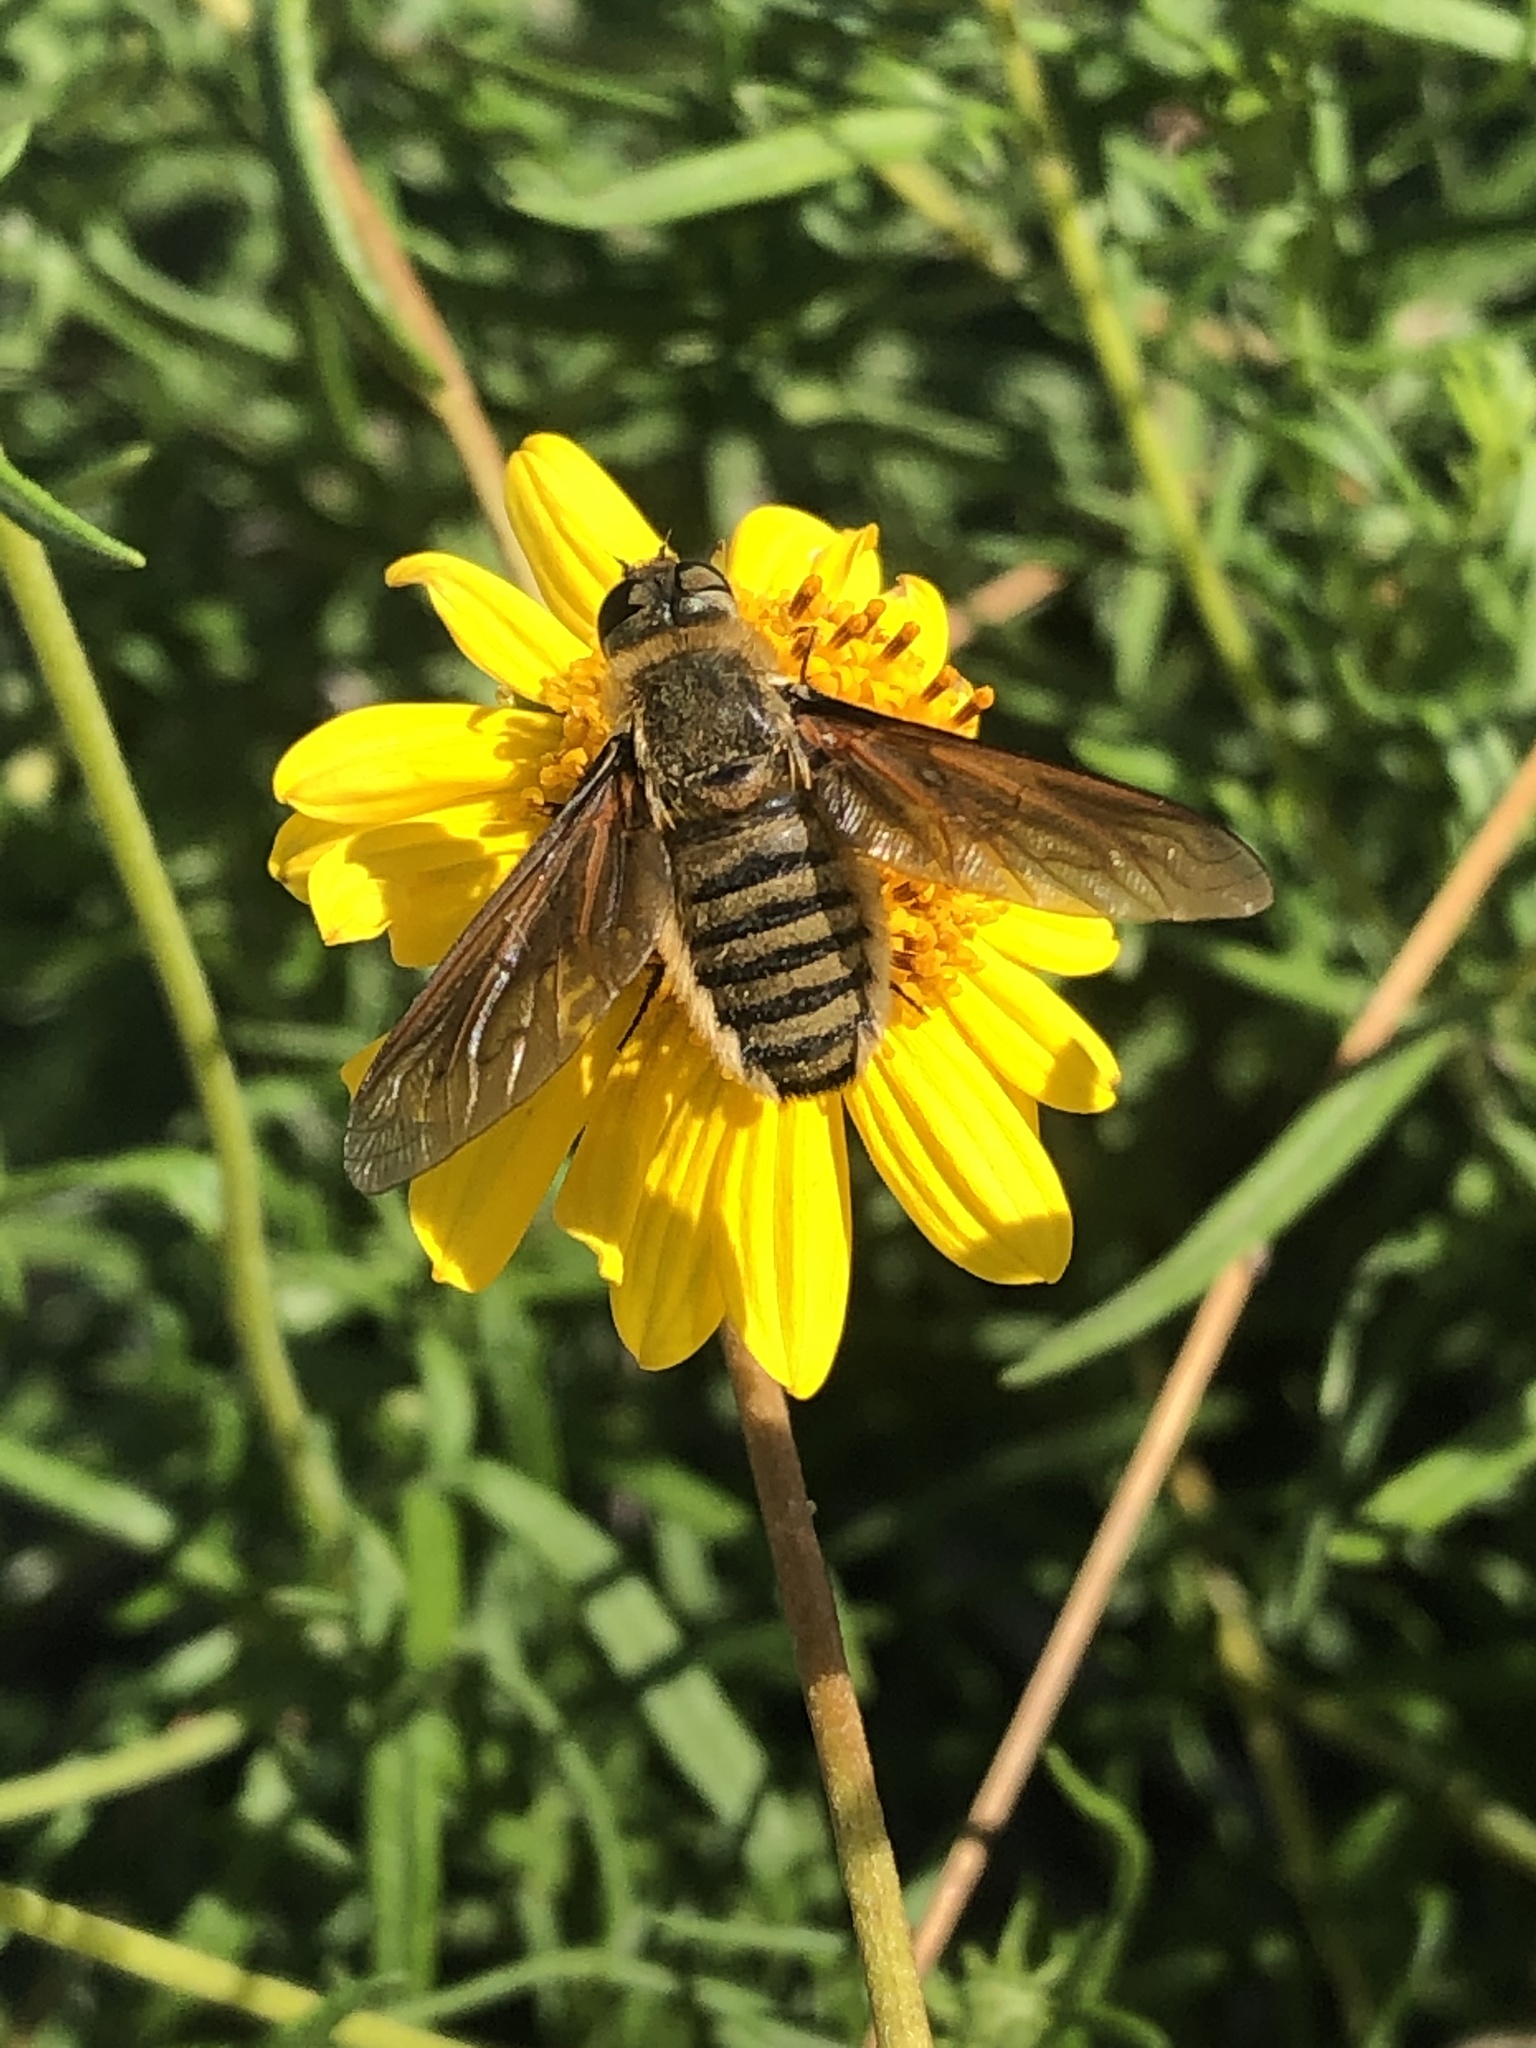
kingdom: Animalia
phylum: Arthropoda
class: Insecta
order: Diptera
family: Bombyliidae
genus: Poecilanthrax
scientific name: Poecilanthrax lucifer
